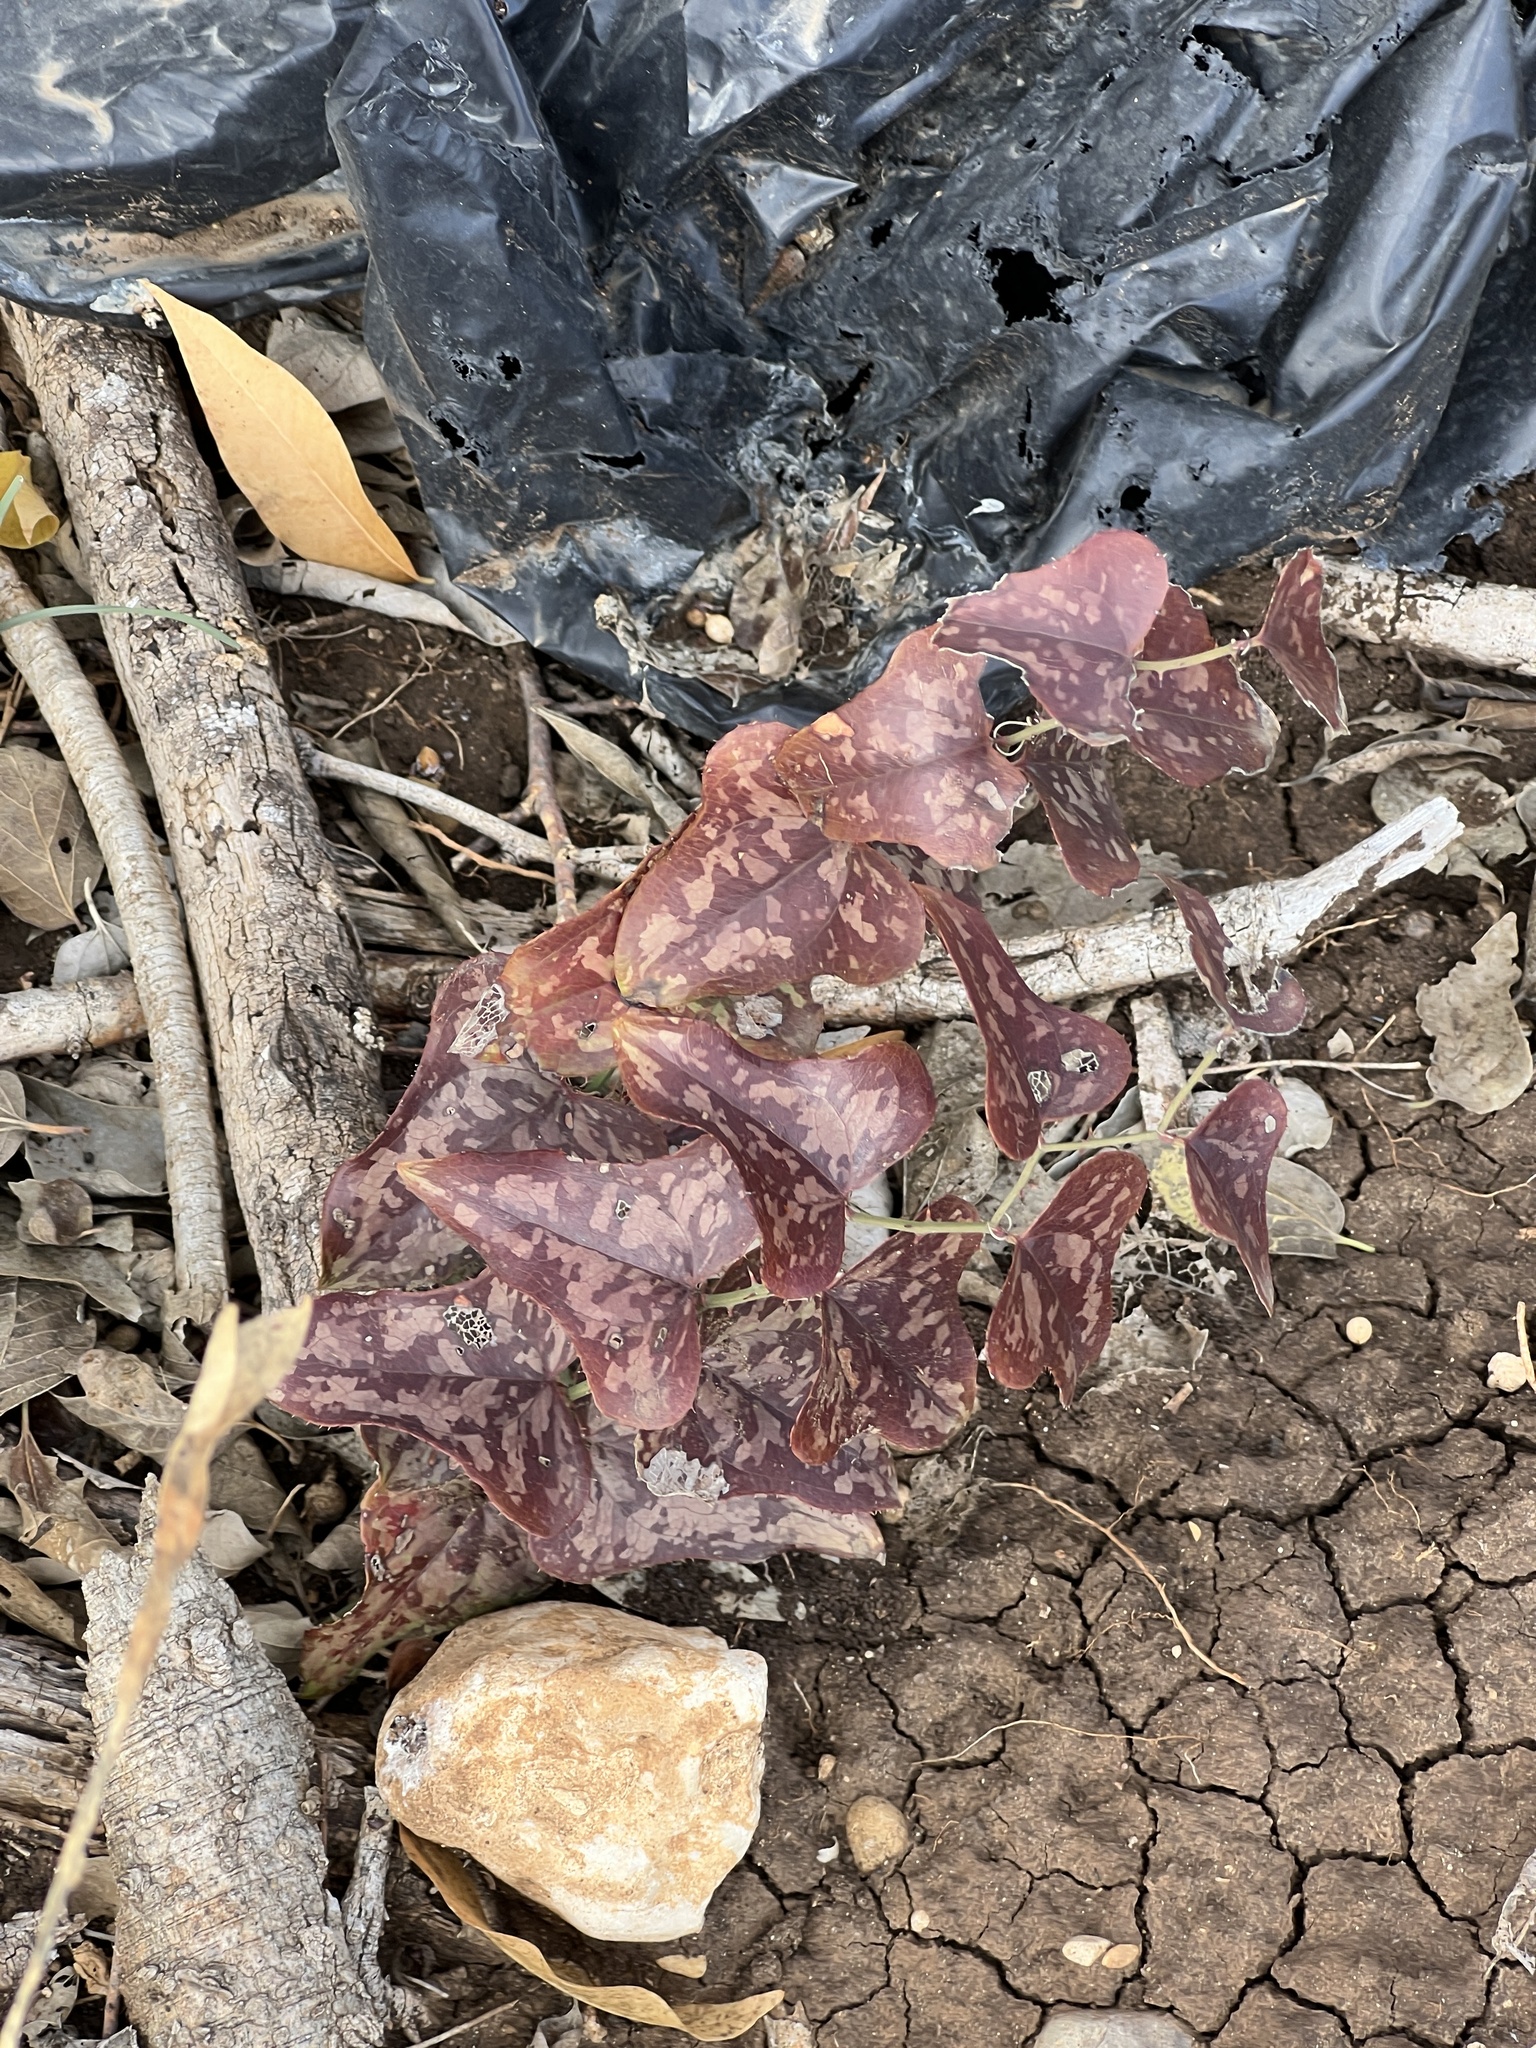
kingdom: Plantae
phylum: Tracheophyta
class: Liliopsida
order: Liliales
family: Smilacaceae
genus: Smilax
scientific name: Smilax bona-nox
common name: Catbrier
